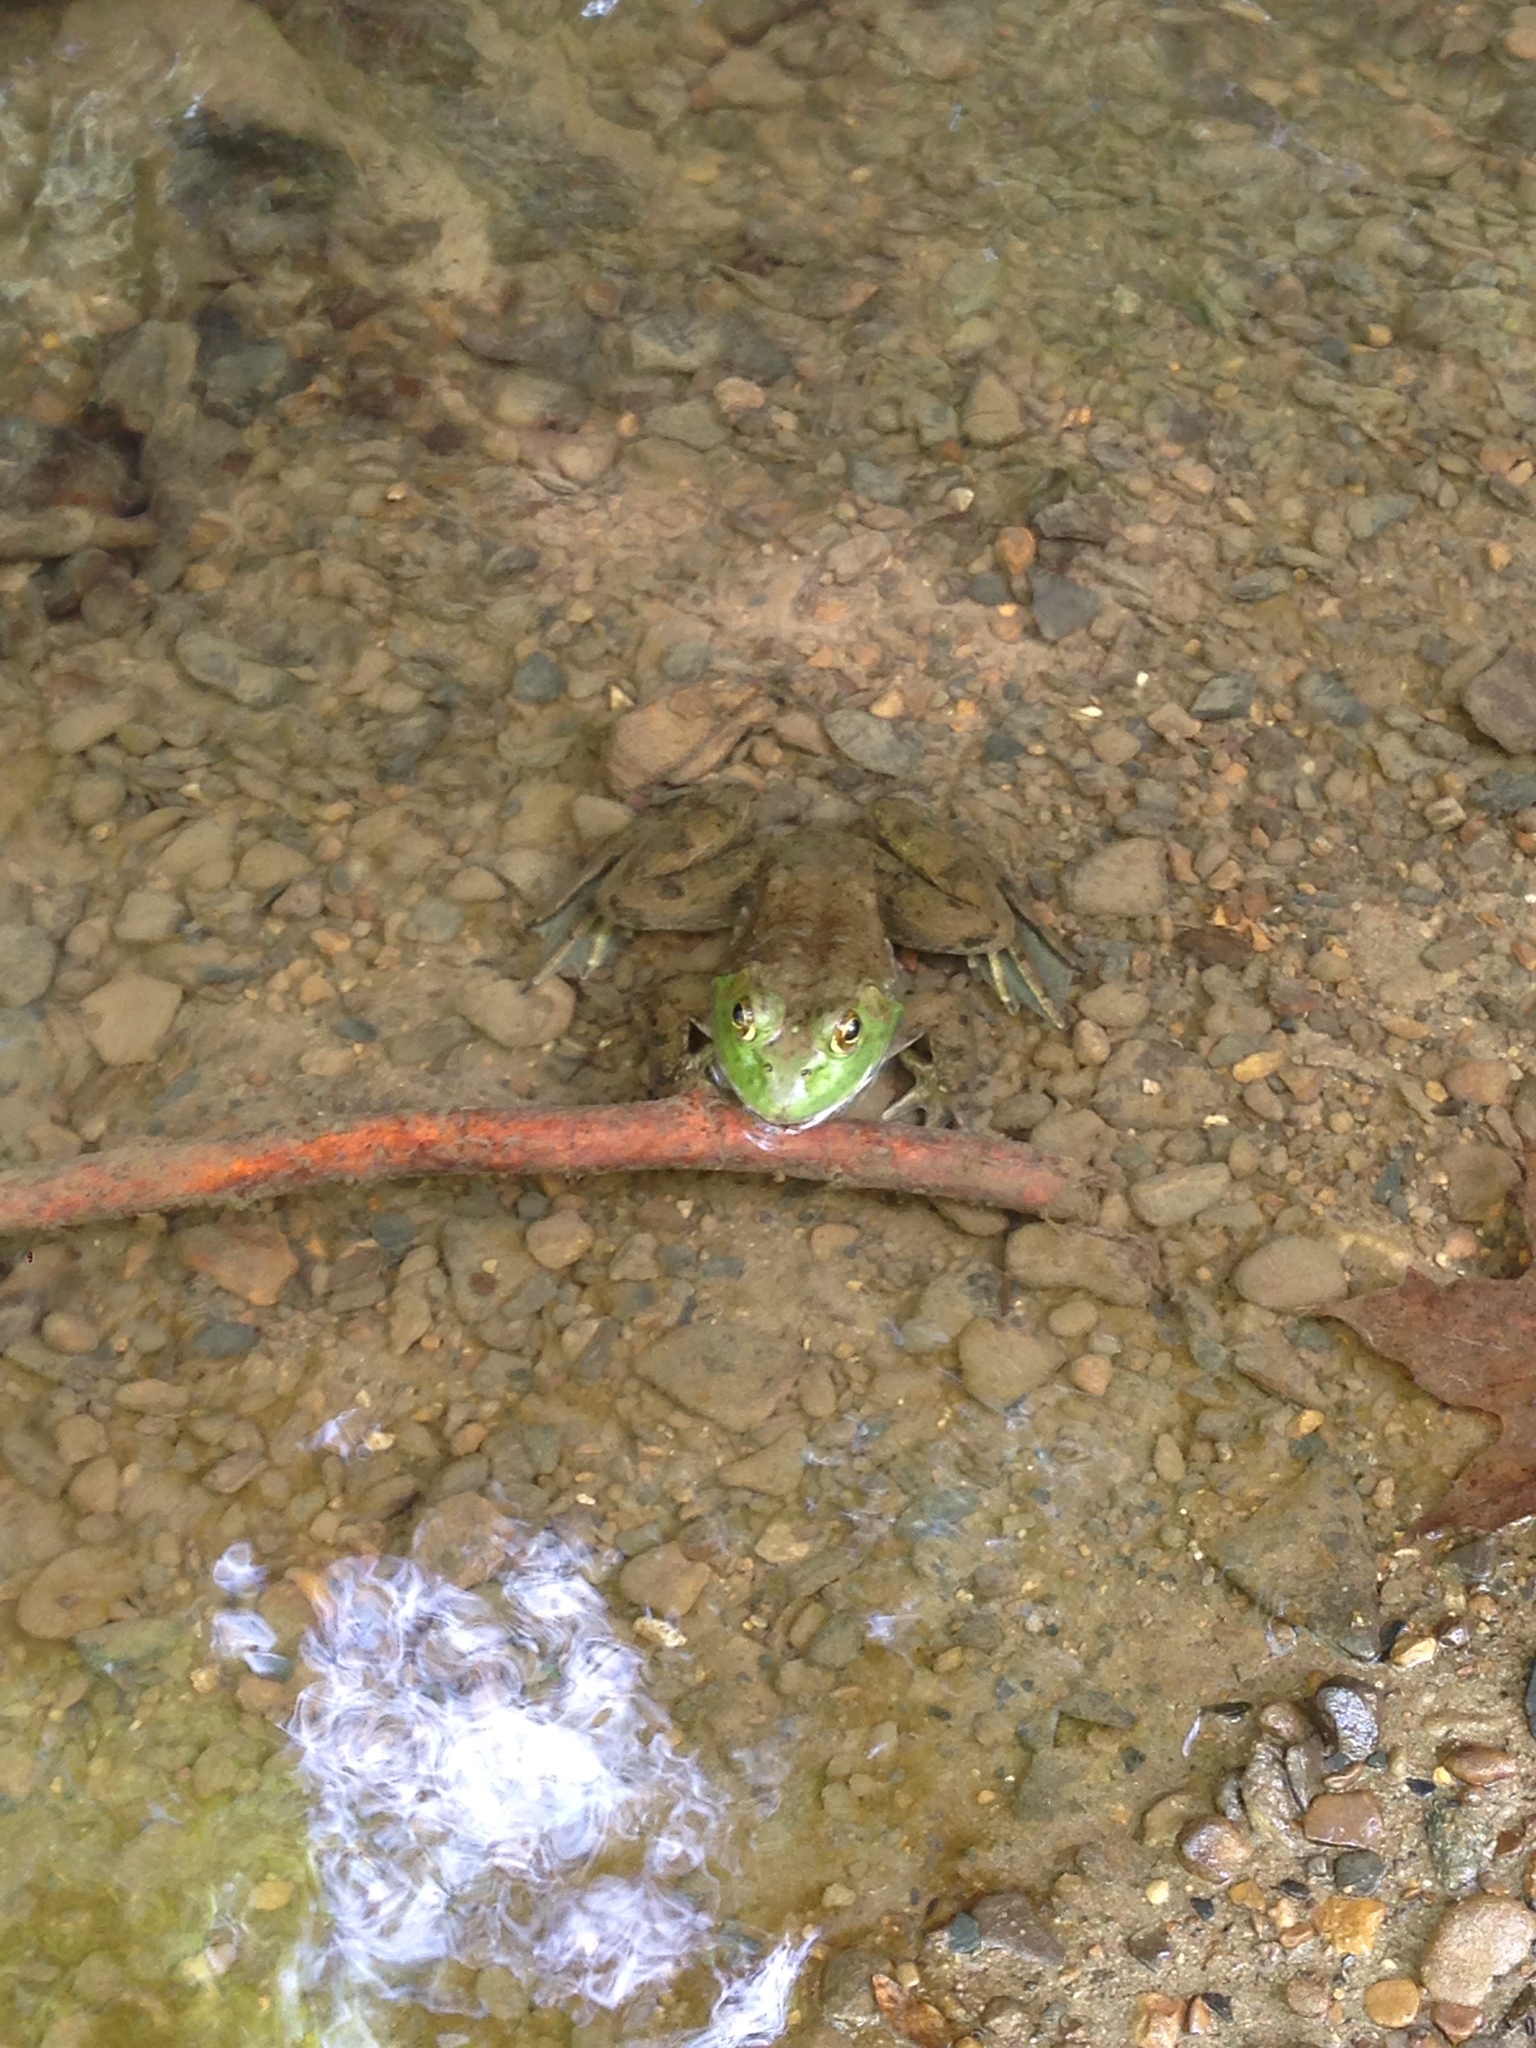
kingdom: Animalia
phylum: Chordata
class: Amphibia
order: Anura
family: Ranidae
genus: Lithobates
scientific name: Lithobates catesbeianus
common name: American bullfrog
